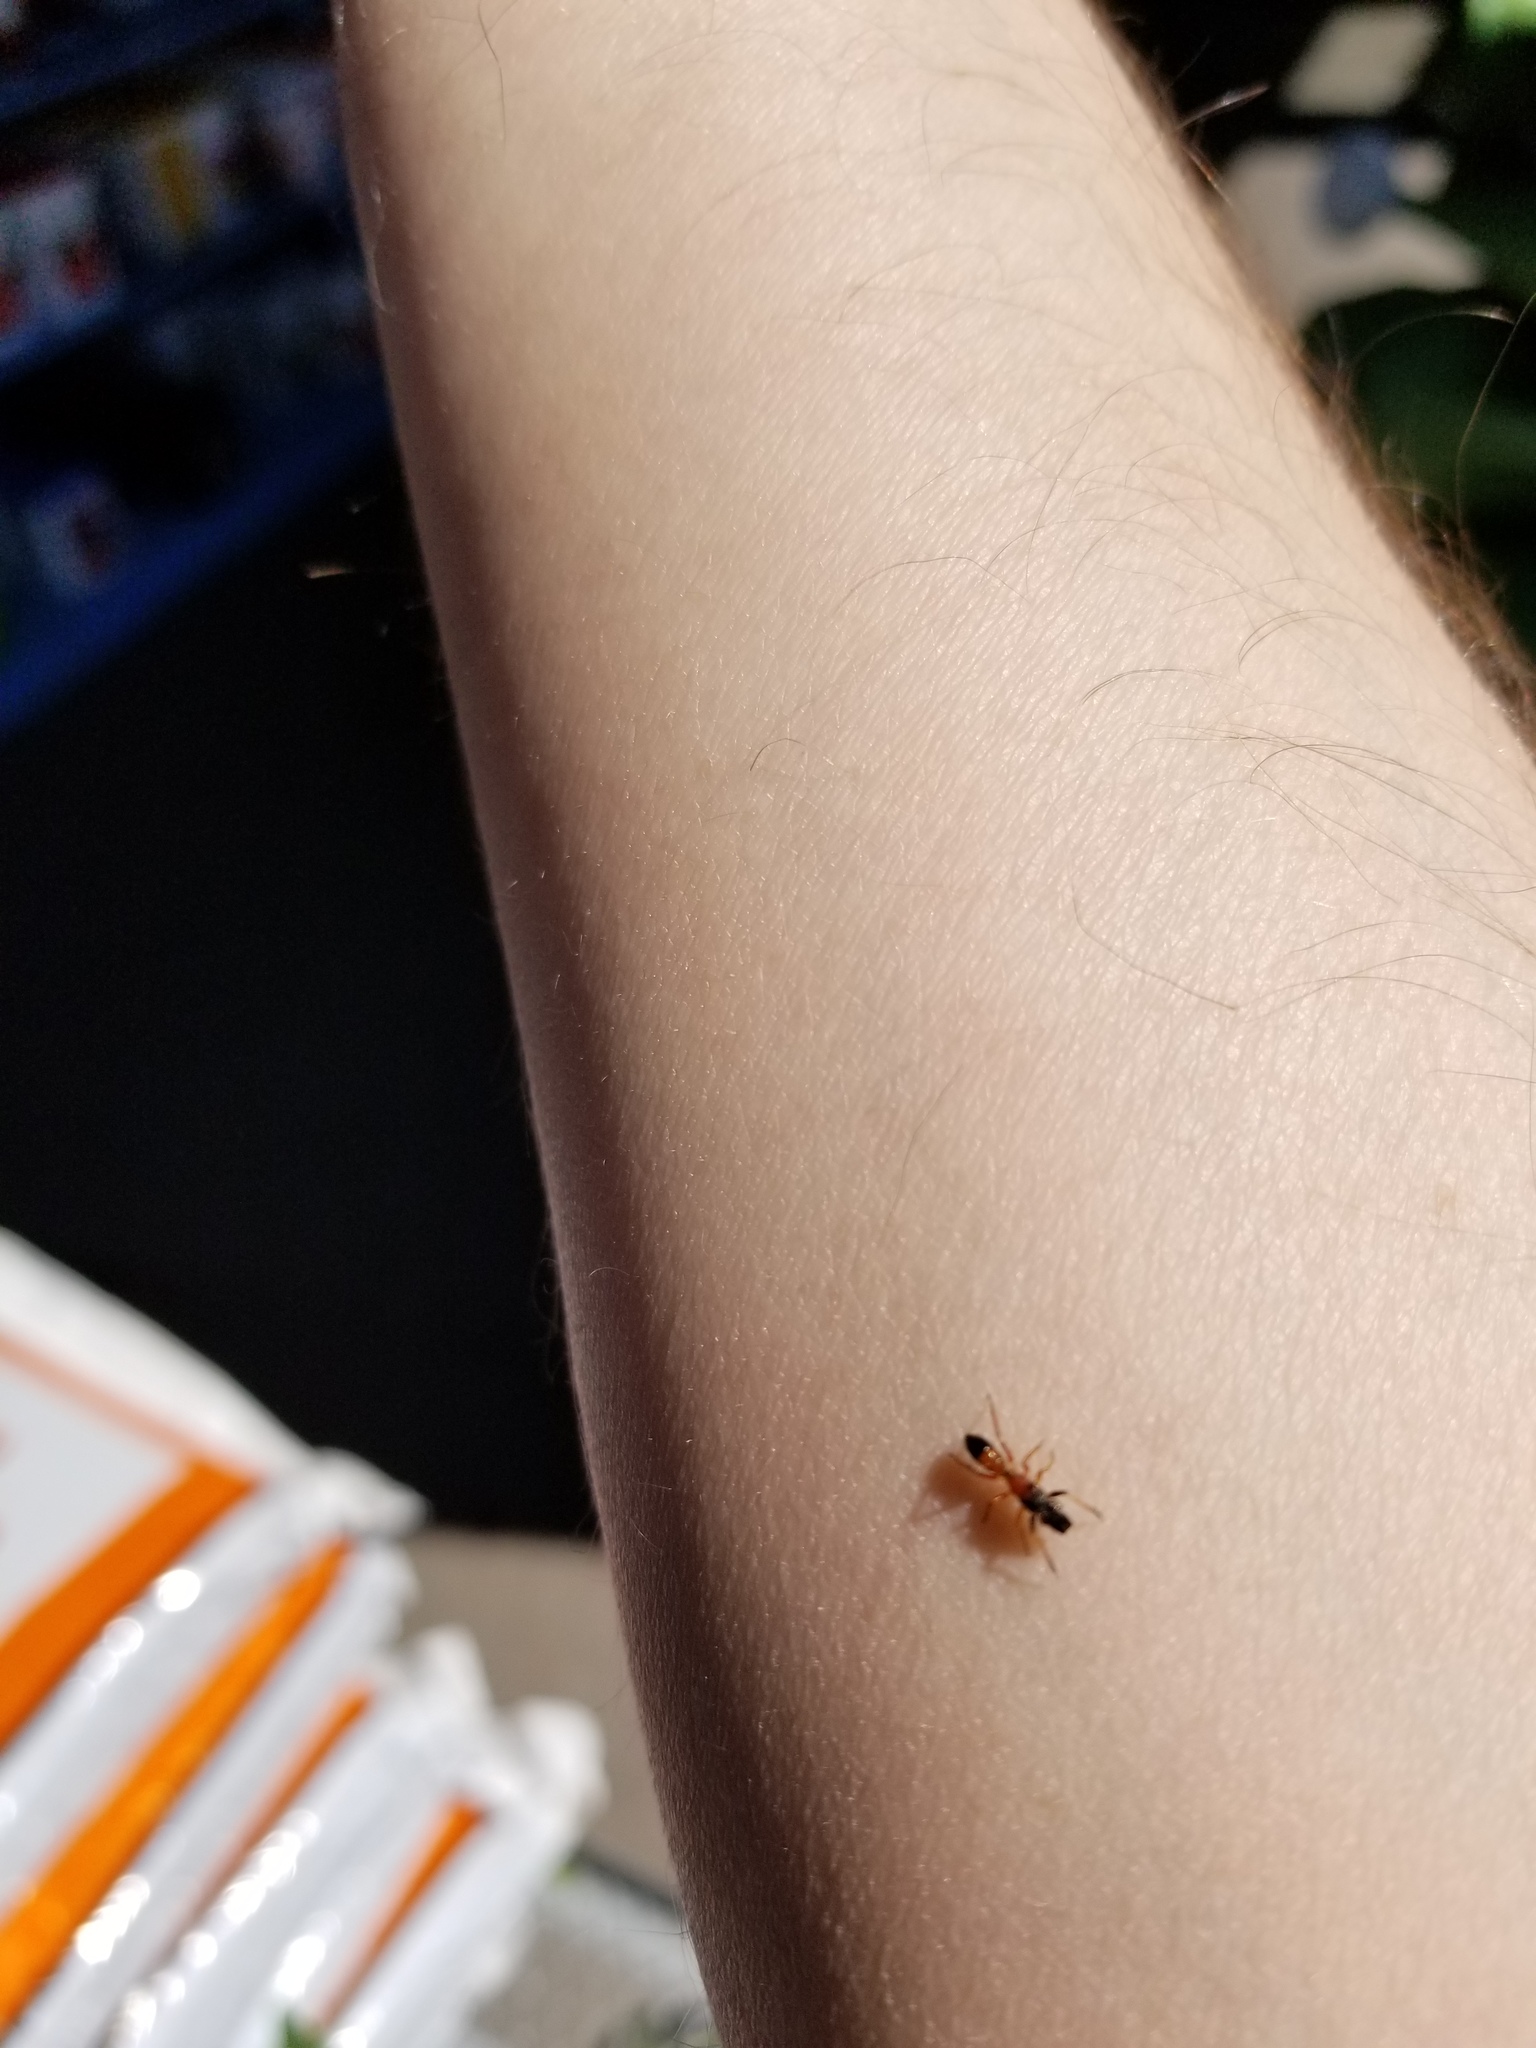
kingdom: Animalia
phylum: Arthropoda
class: Arachnida
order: Araneae
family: Salticidae
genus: Myrmarachne
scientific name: Myrmarachne formicaria
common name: Ant mimic jumping spider
